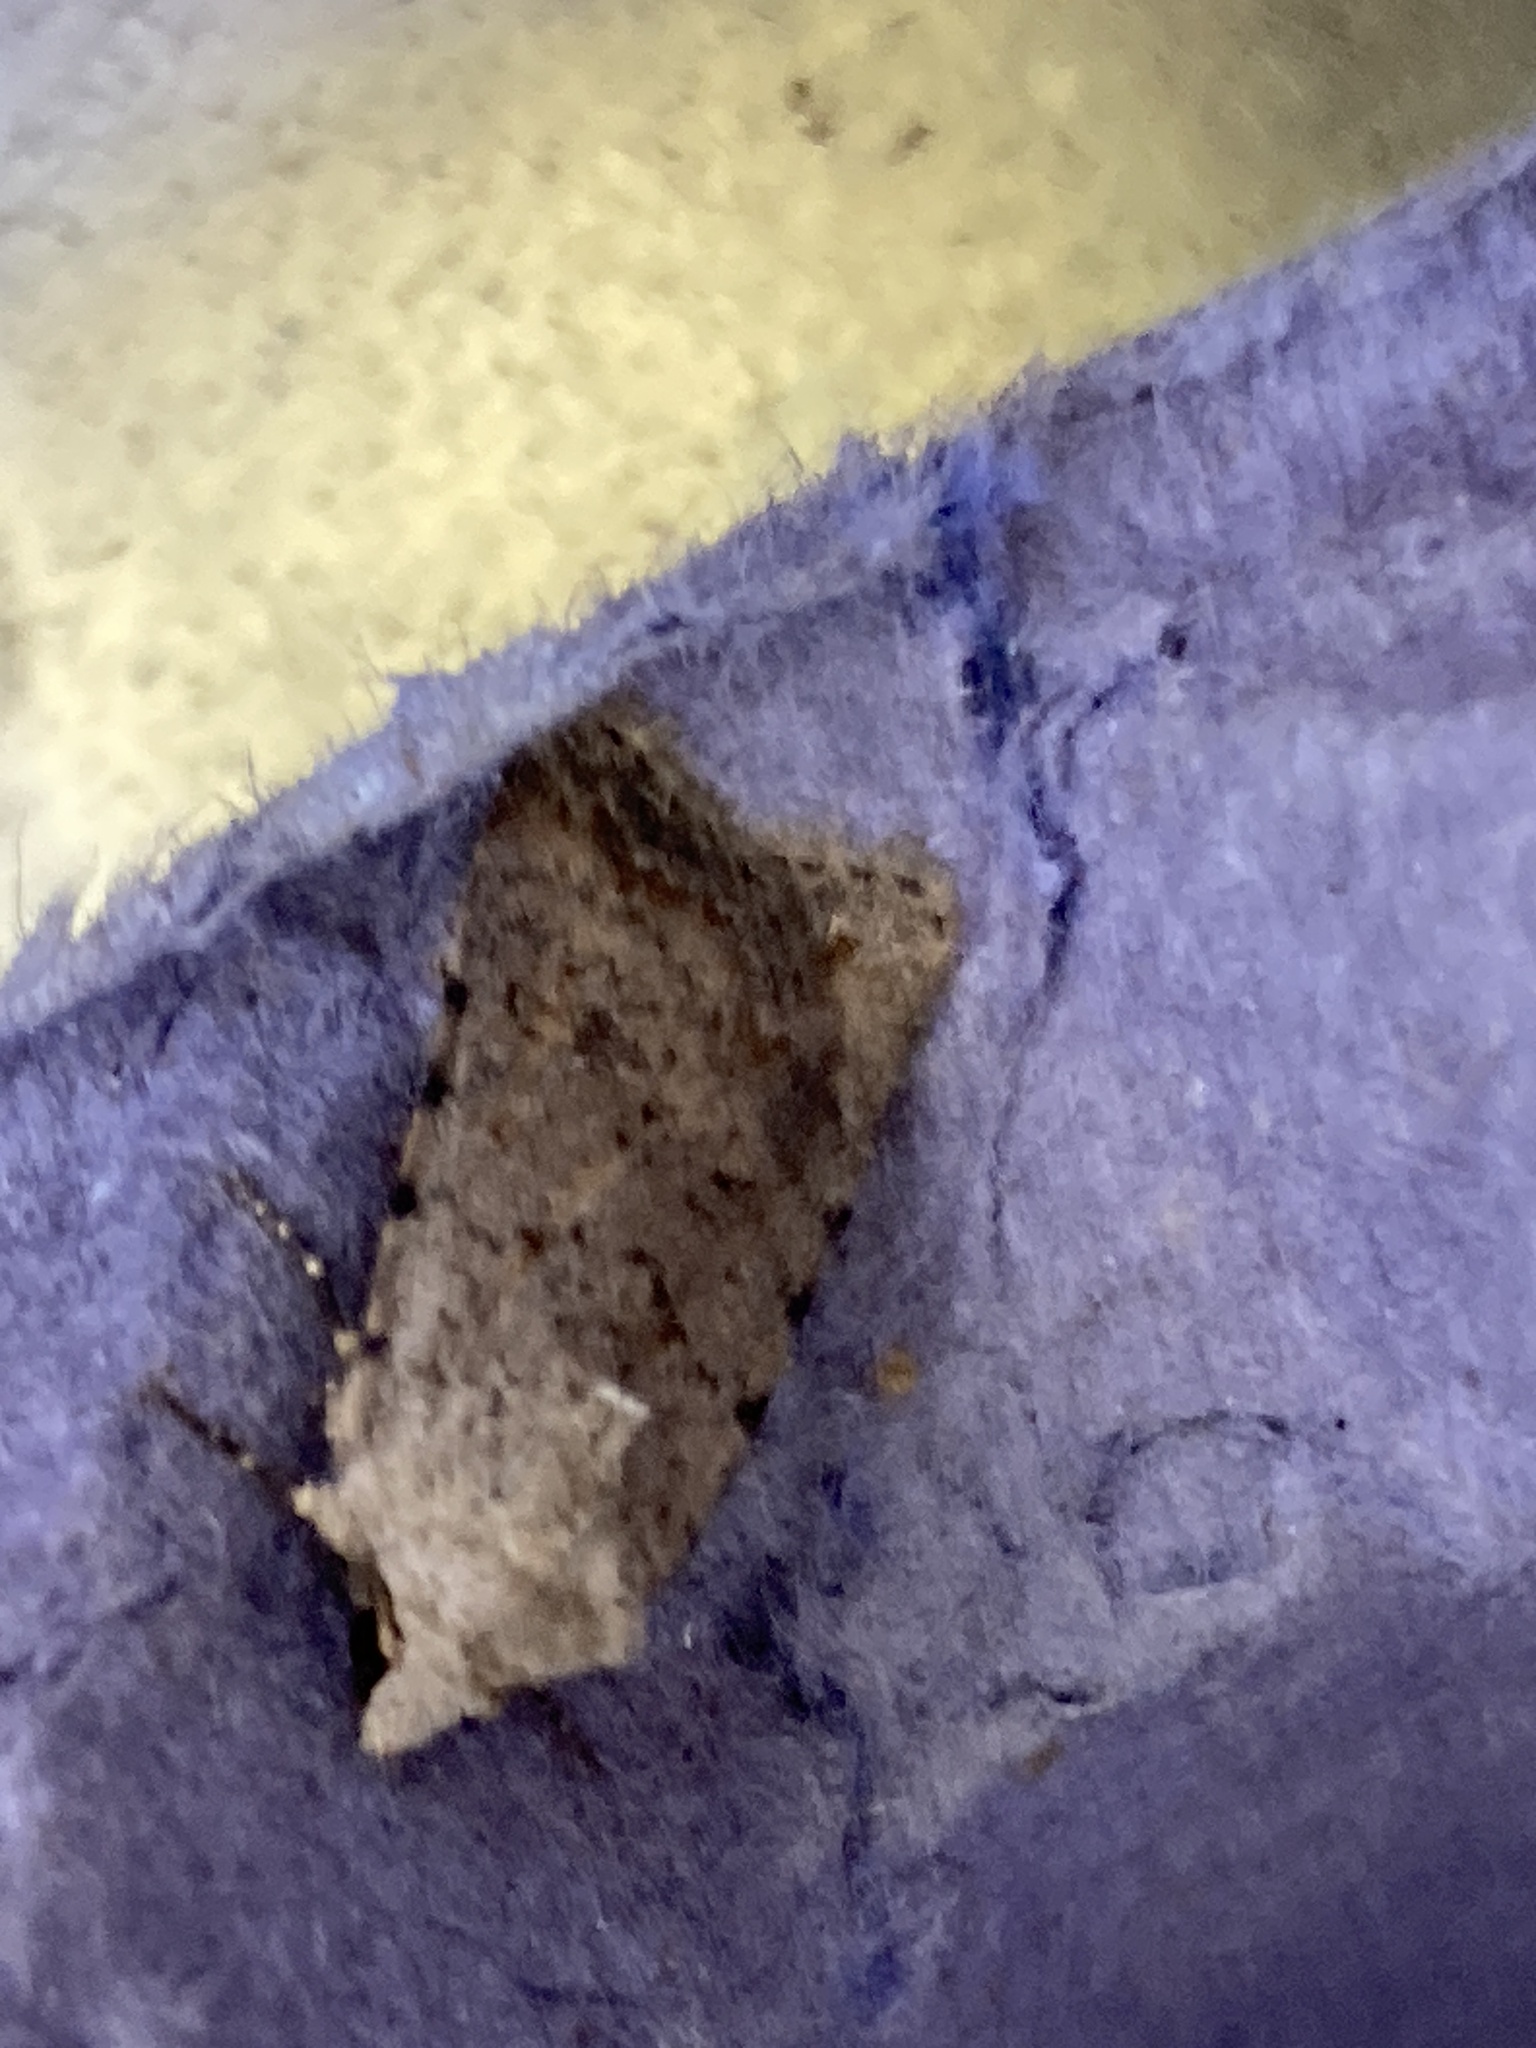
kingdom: Animalia
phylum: Arthropoda
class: Insecta
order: Lepidoptera
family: Noctuidae
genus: Caradrina
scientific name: Caradrina clavipalpis
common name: Pale mottled willow
